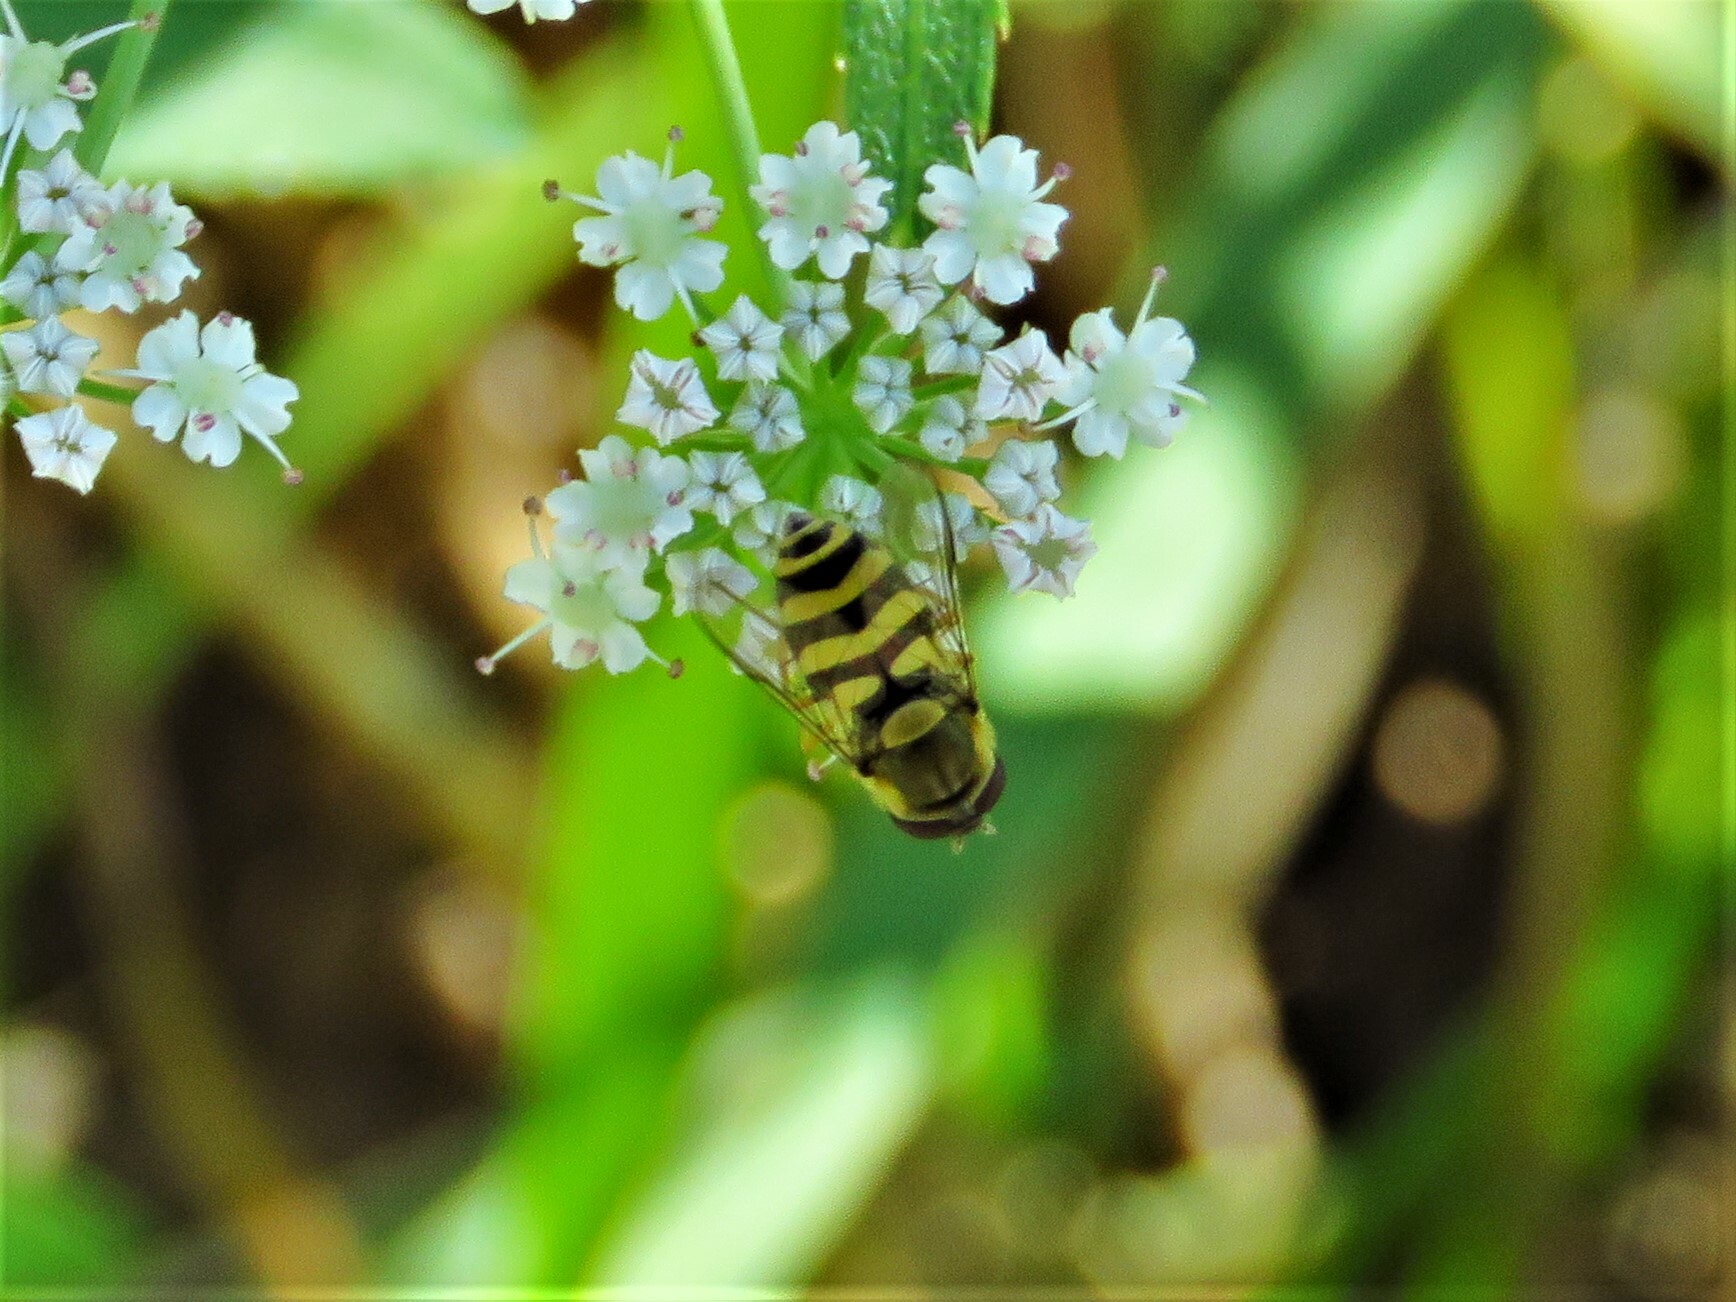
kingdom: Animalia
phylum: Arthropoda
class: Insecta
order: Diptera
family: Syrphidae
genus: Syrphus
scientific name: Syrphus ribesii
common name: Common flower fly
